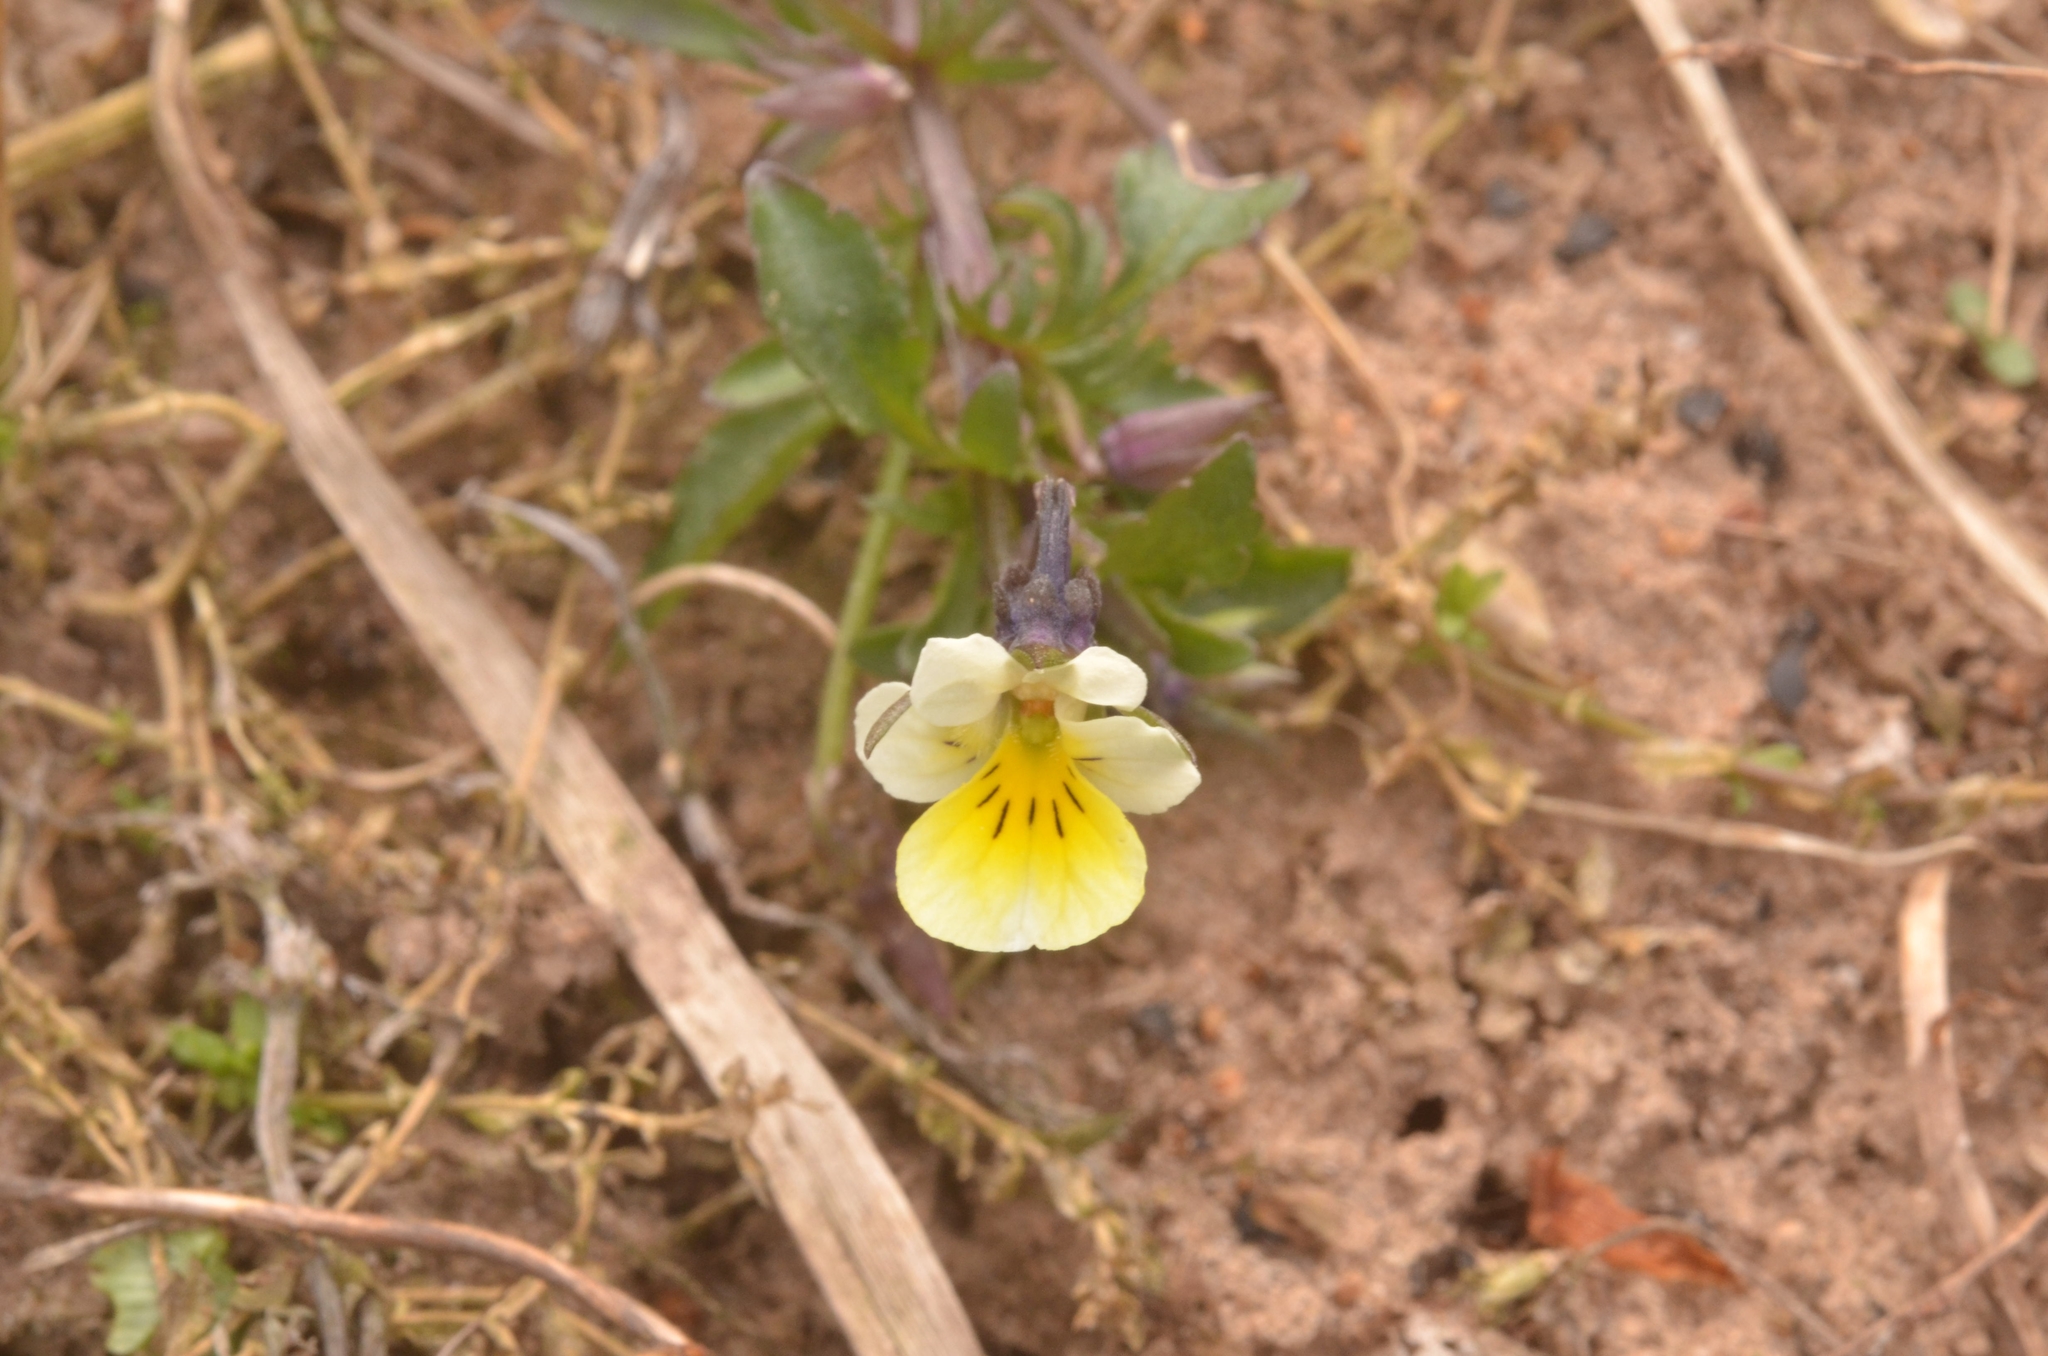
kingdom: Plantae
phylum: Tracheophyta
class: Magnoliopsida
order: Malpighiales
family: Violaceae
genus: Viola
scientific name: Viola arvensis
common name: Field pansy
